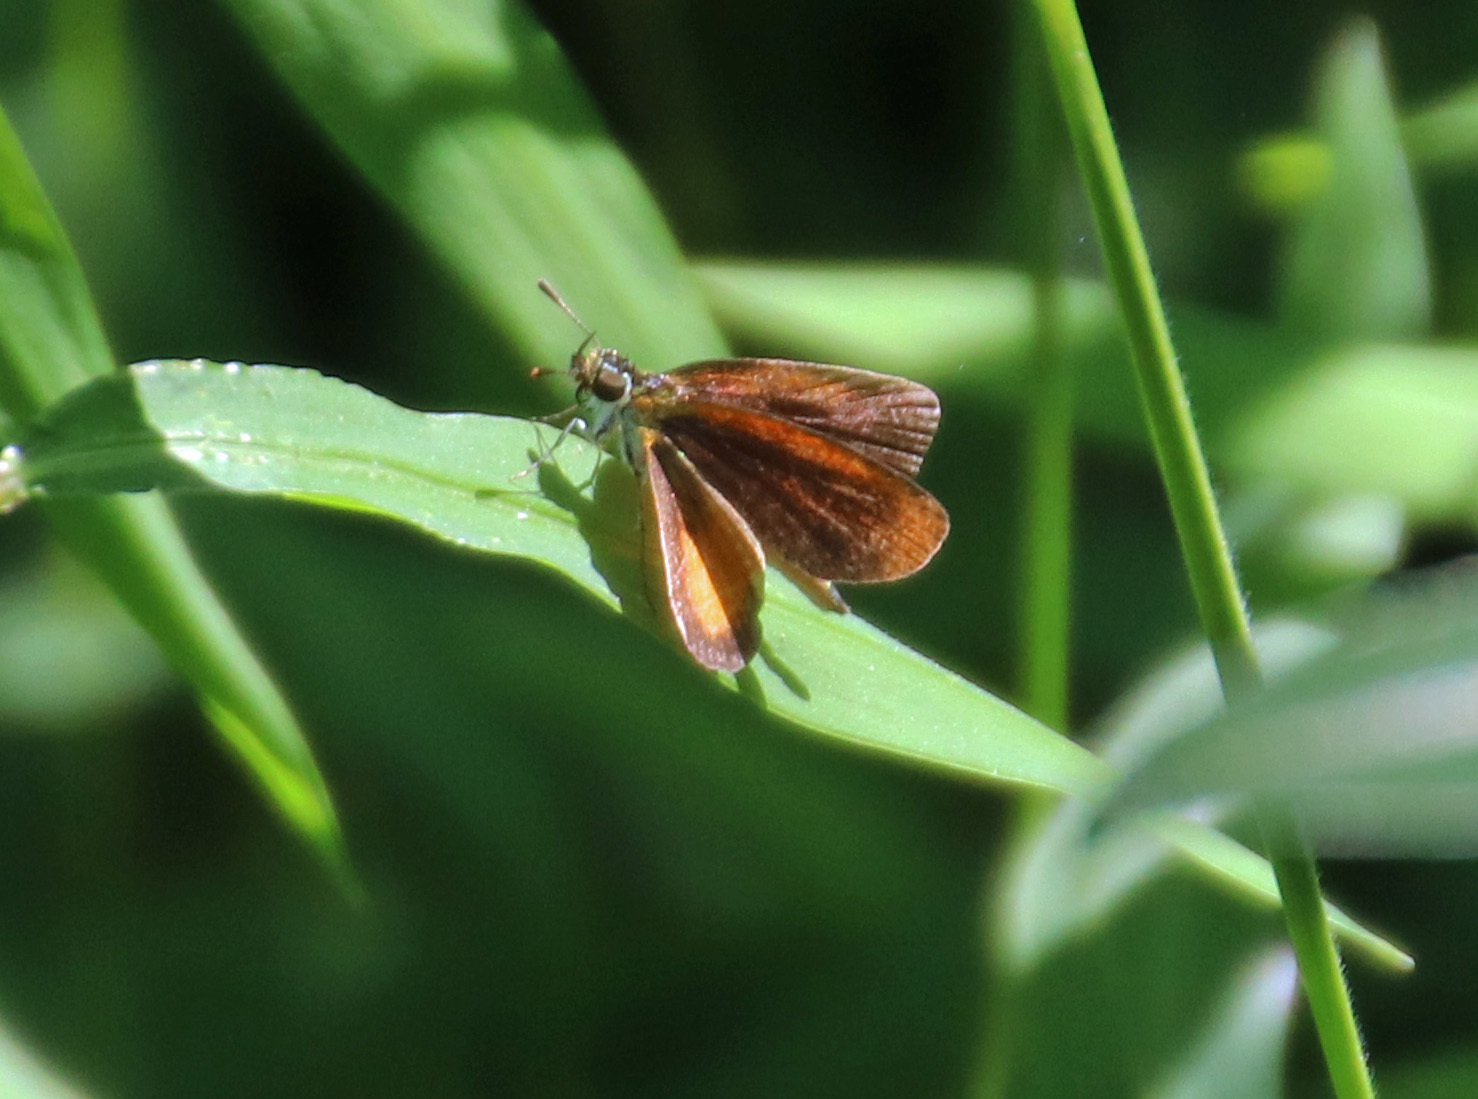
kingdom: Animalia
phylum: Arthropoda
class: Insecta
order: Lepidoptera
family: Hesperiidae
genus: Ancyloxypha
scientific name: Ancyloxypha numitor
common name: Least skipper
